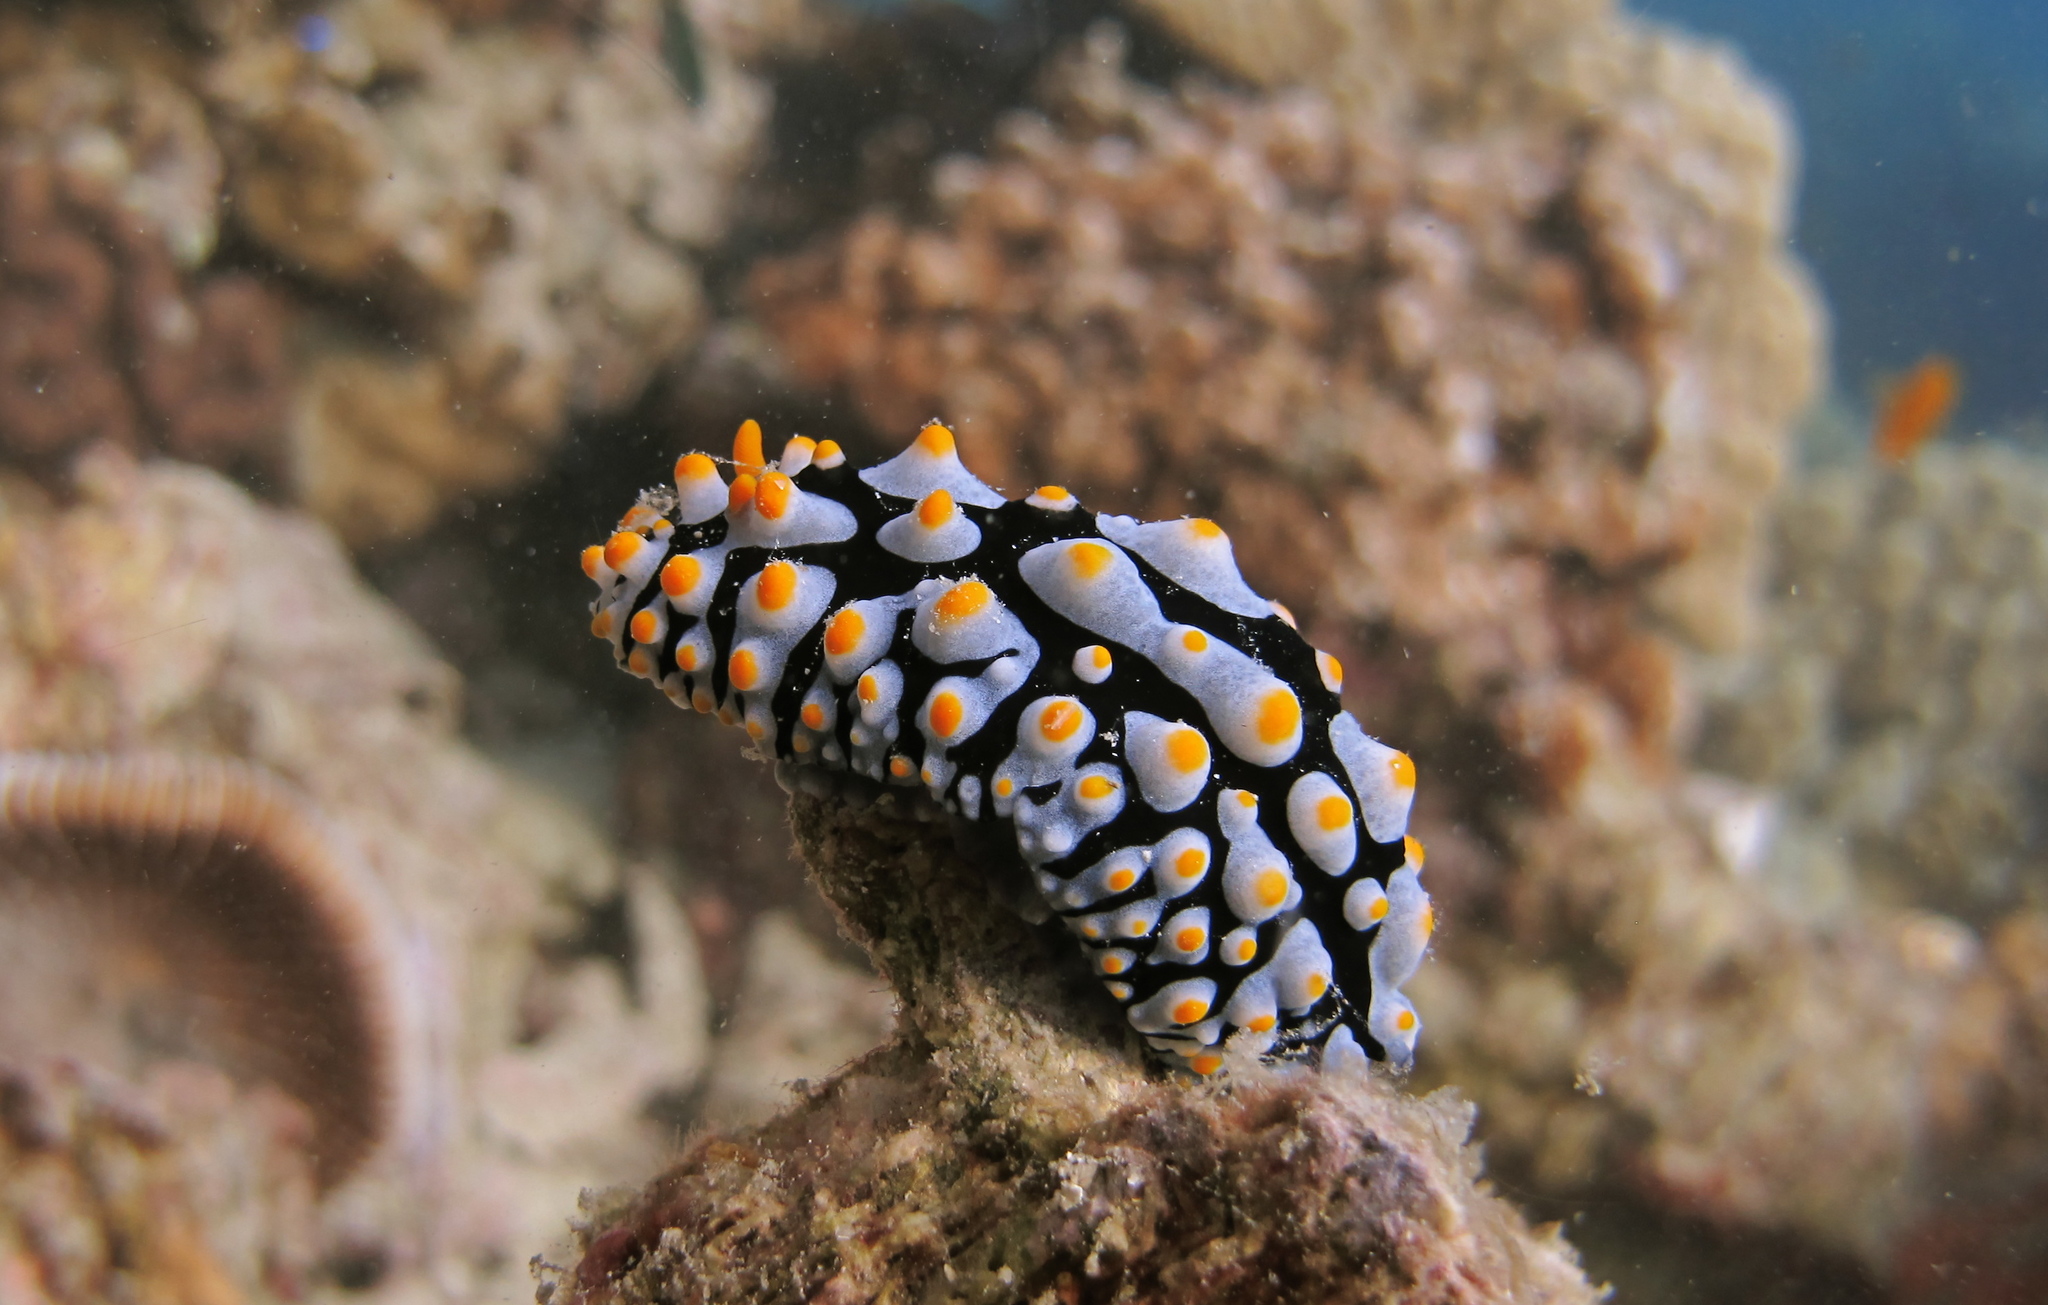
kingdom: Animalia
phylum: Mollusca
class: Gastropoda
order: Nudibranchia
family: Phyllidiidae
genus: Phyllidia
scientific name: Phyllidia varicosa
